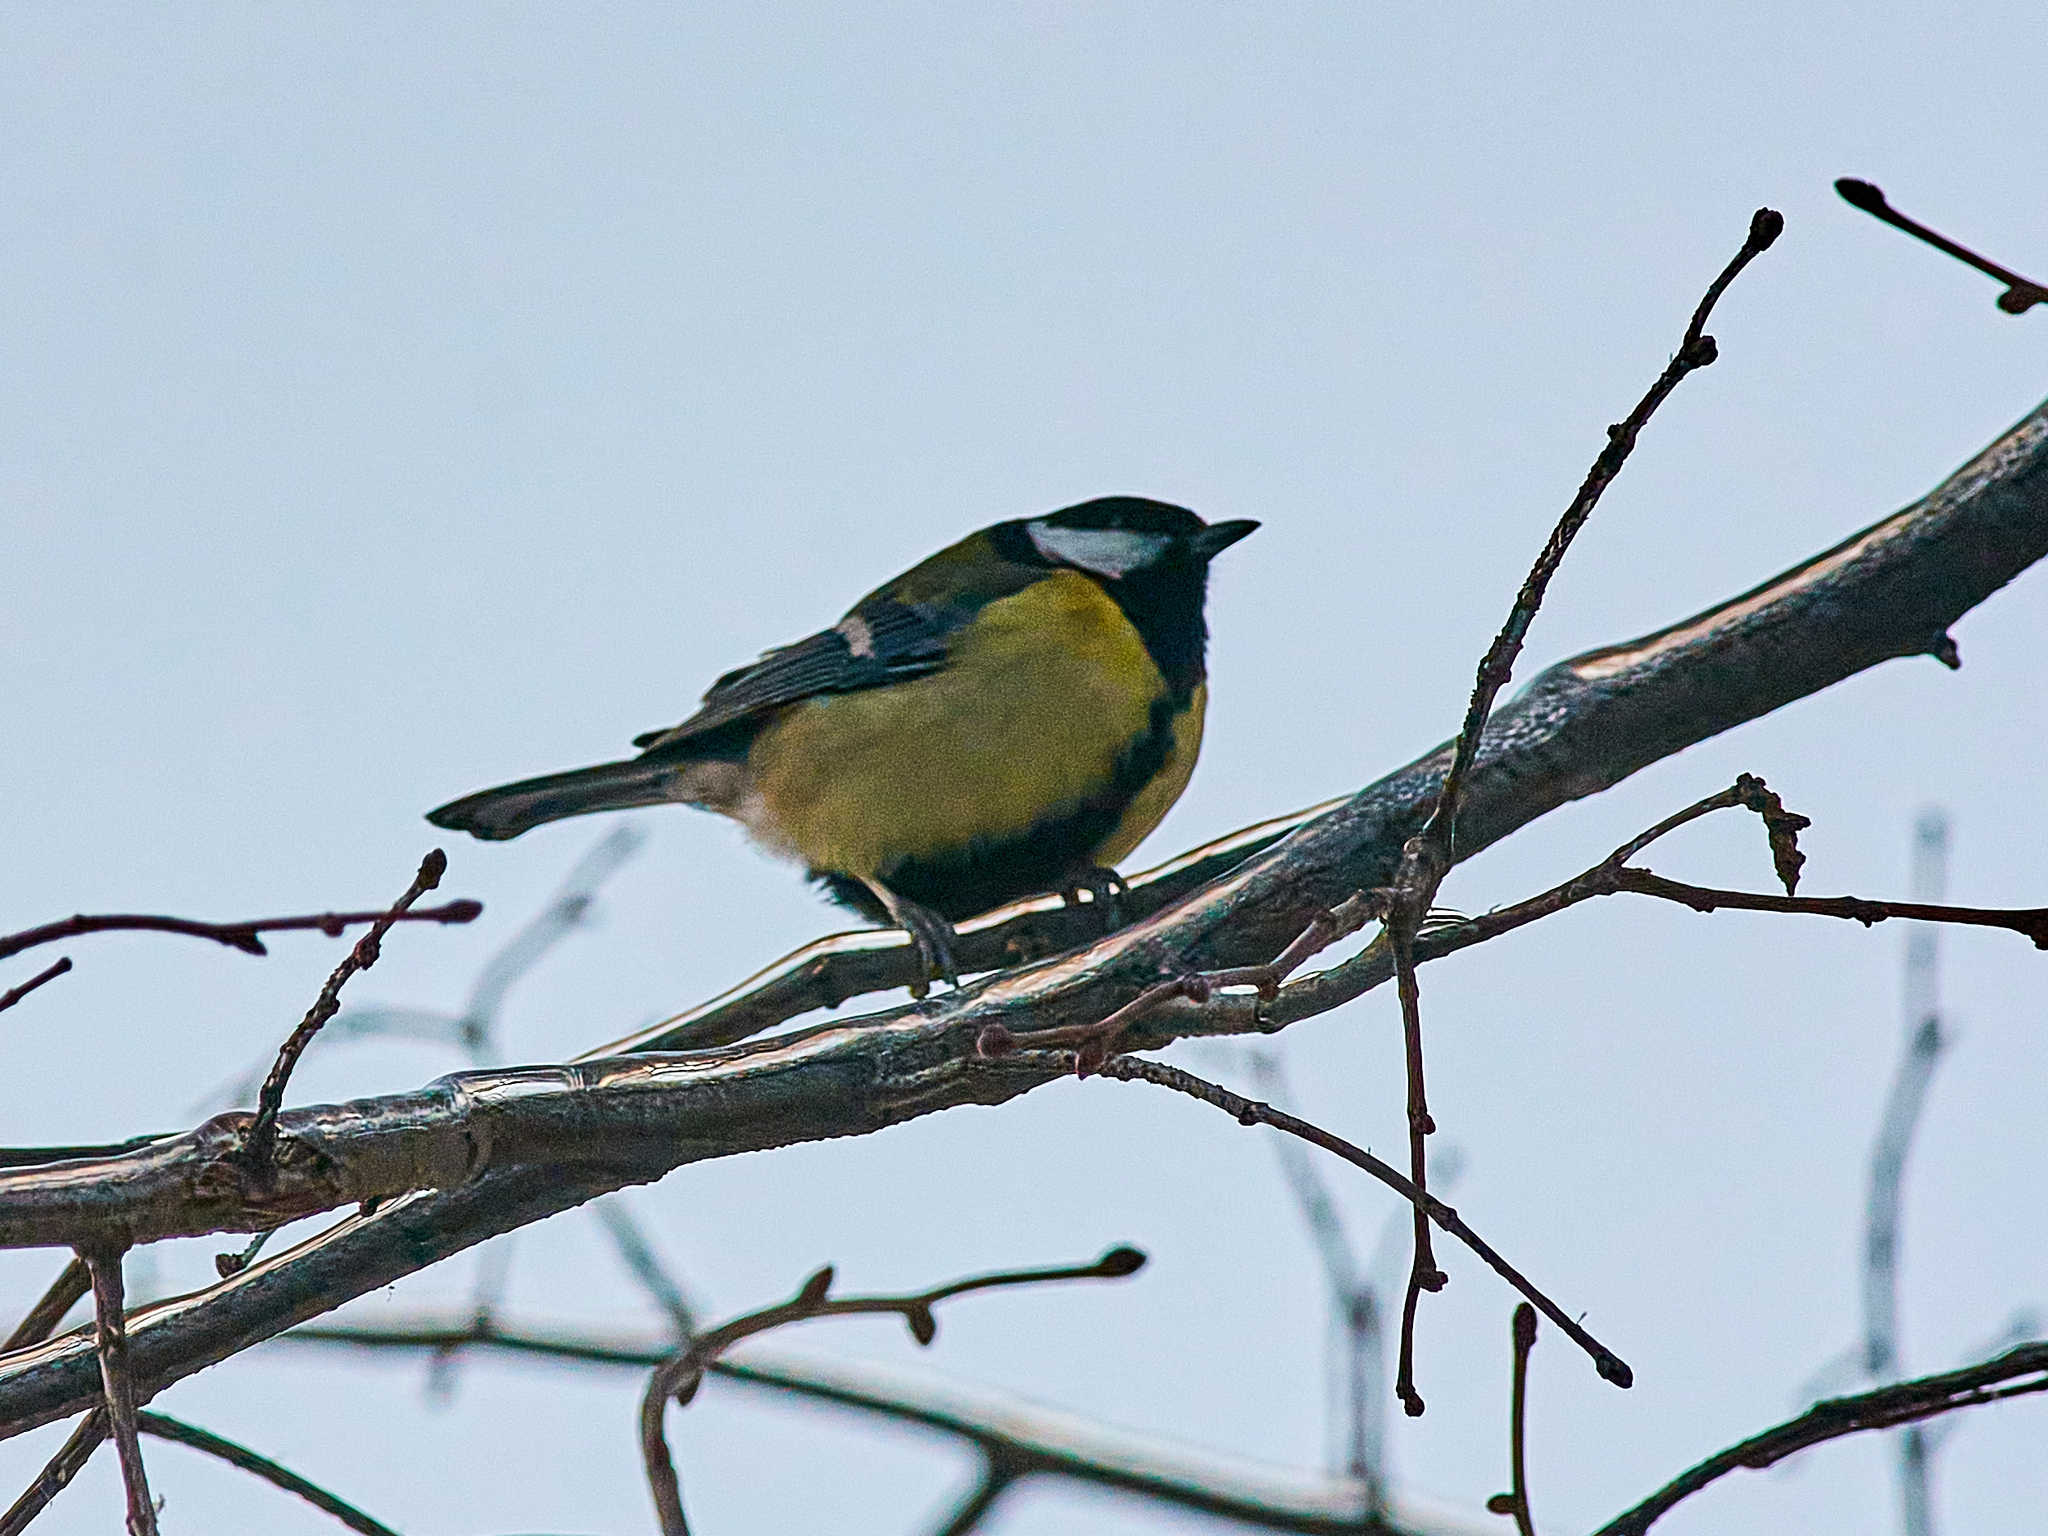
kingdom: Animalia
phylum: Chordata
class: Aves
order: Passeriformes
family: Paridae
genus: Parus
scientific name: Parus major
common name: Great tit
